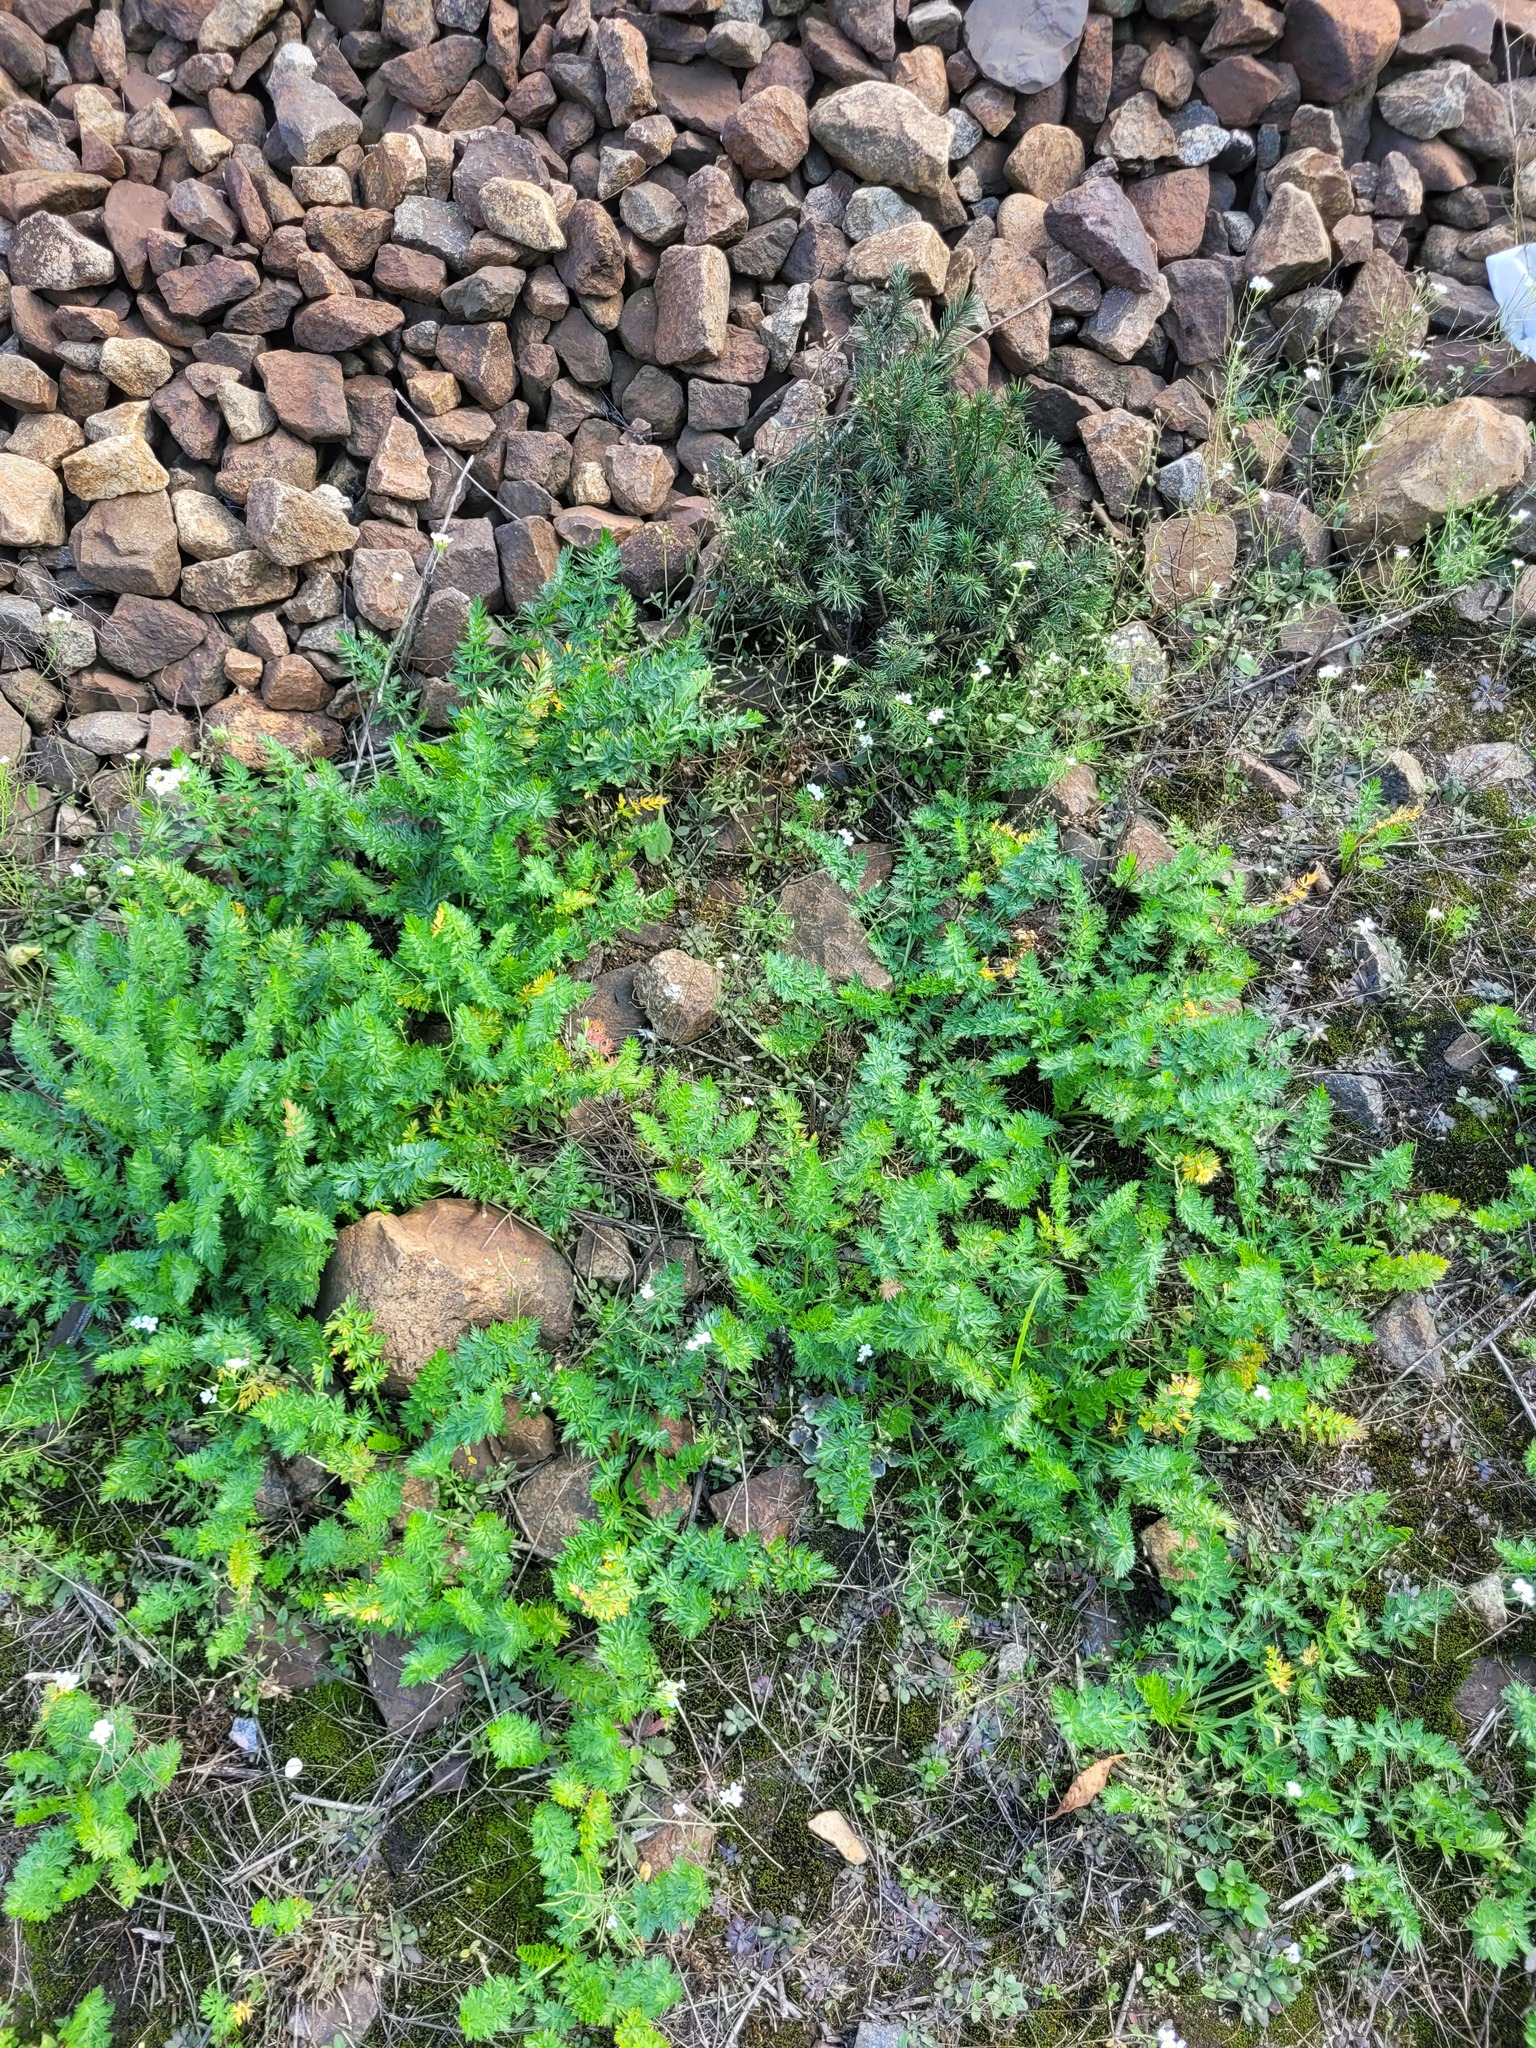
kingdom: Plantae
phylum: Tracheophyta
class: Magnoliopsida
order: Apiales
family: Apiaceae
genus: Carum
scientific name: Carum carvi
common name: Caraway
